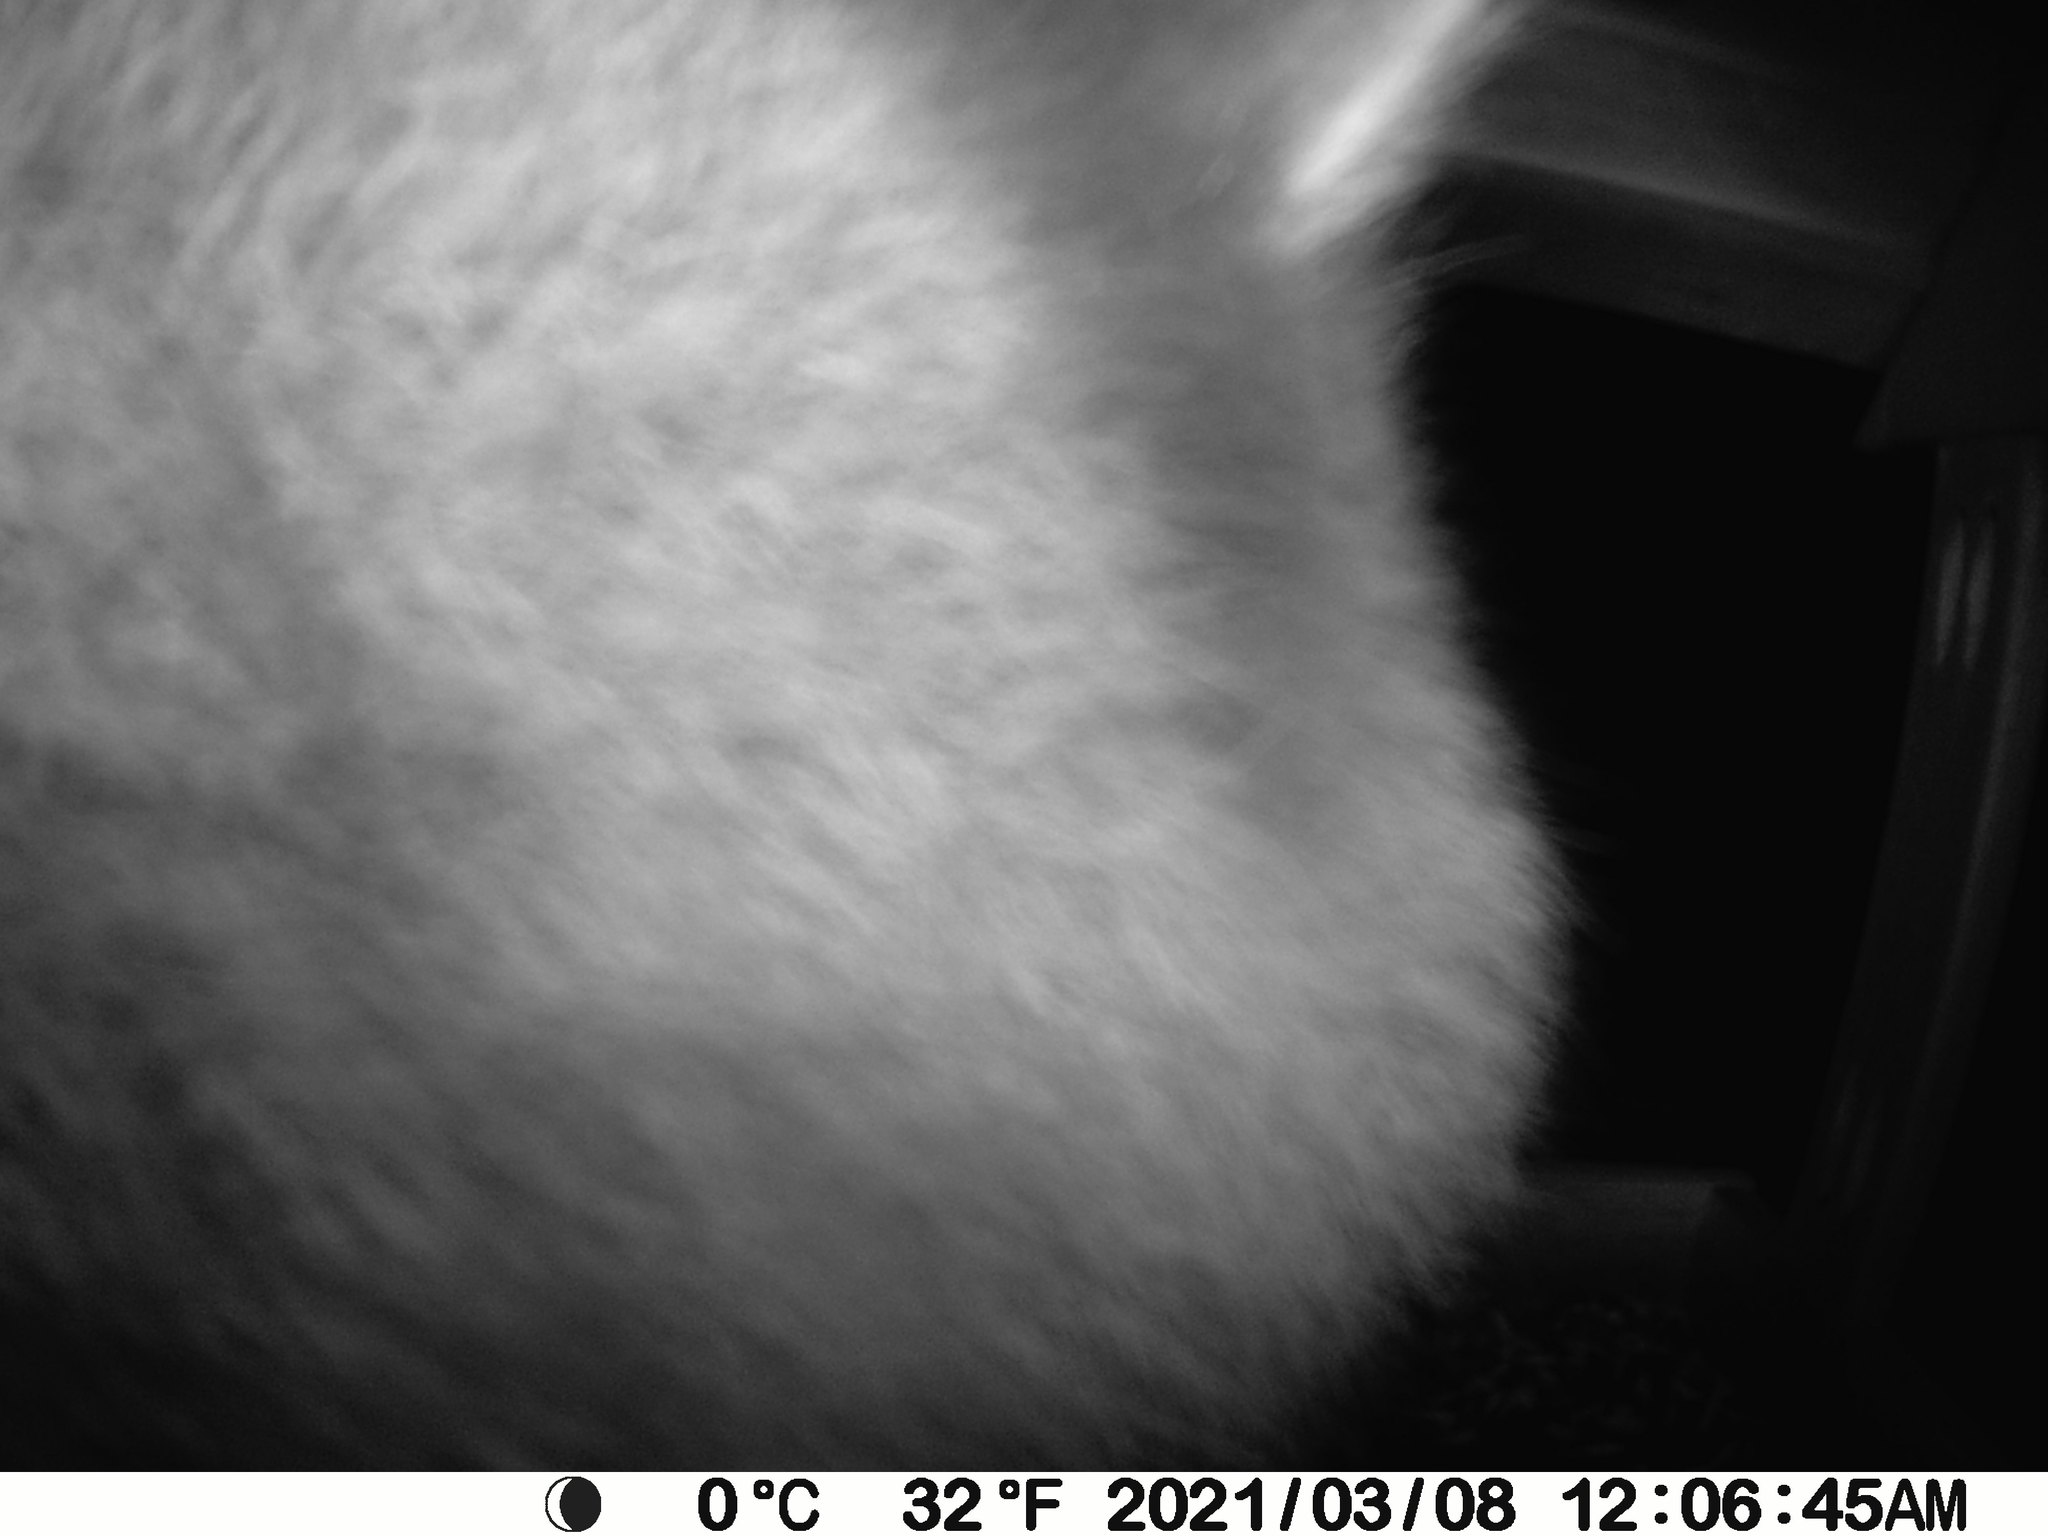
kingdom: Animalia
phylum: Chordata
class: Mammalia
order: Carnivora
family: Procyonidae
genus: Procyon
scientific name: Procyon lotor
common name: Raccoon
